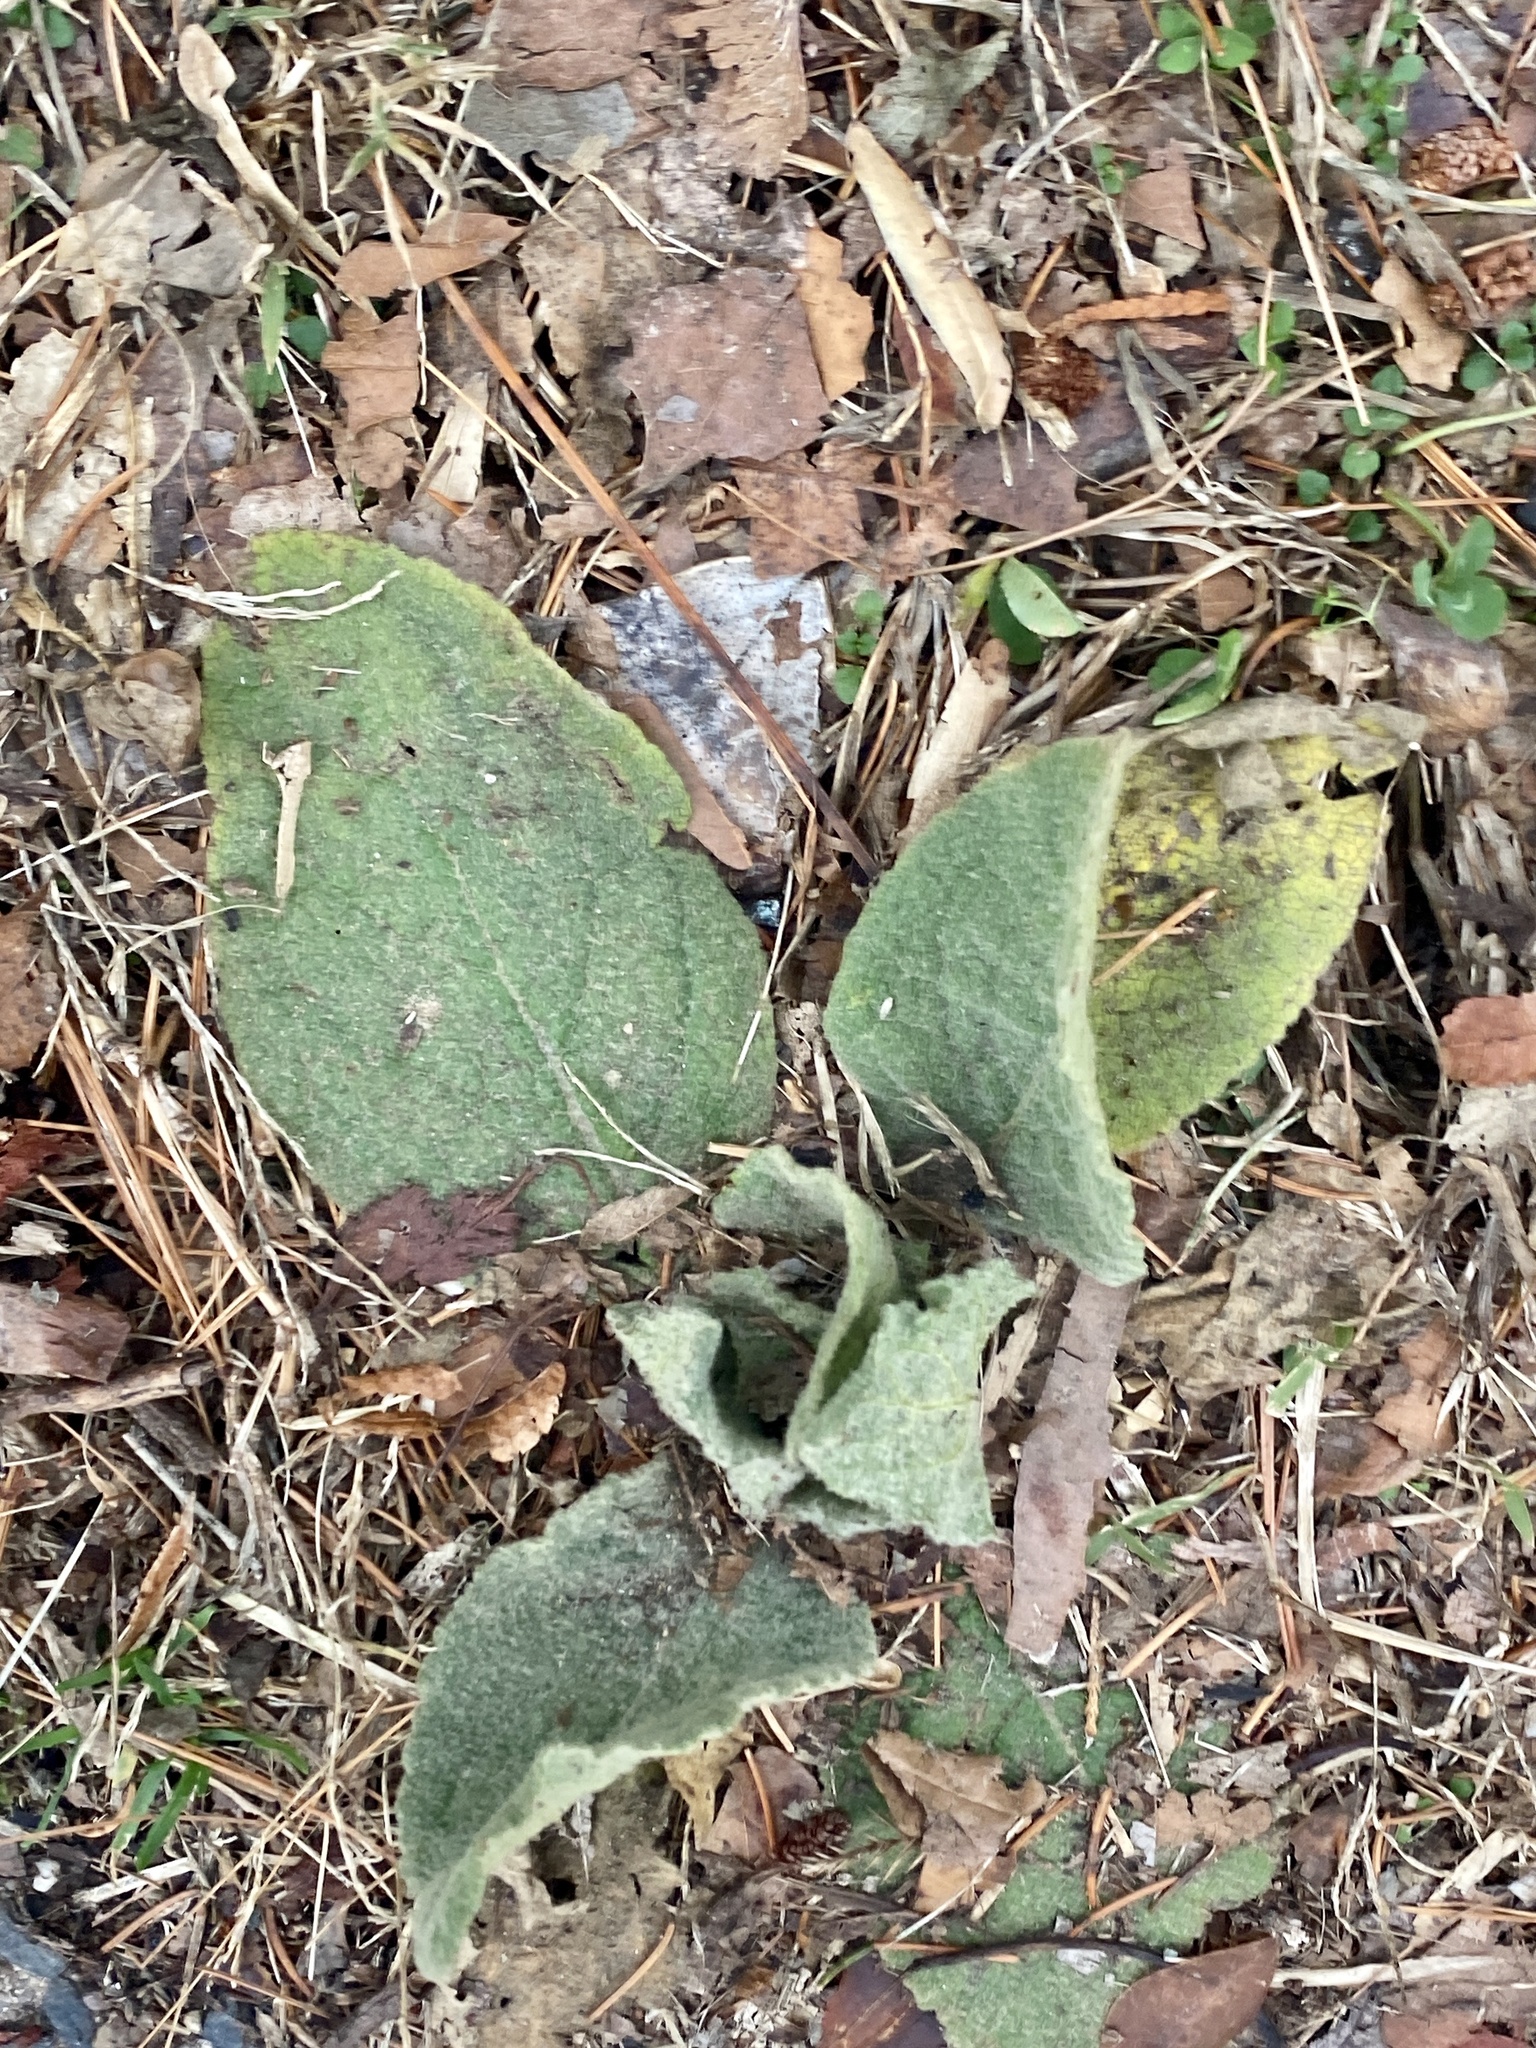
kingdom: Plantae
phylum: Tracheophyta
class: Magnoliopsida
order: Lamiales
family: Scrophulariaceae
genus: Verbascum
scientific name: Verbascum thapsus
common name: Common mullein
